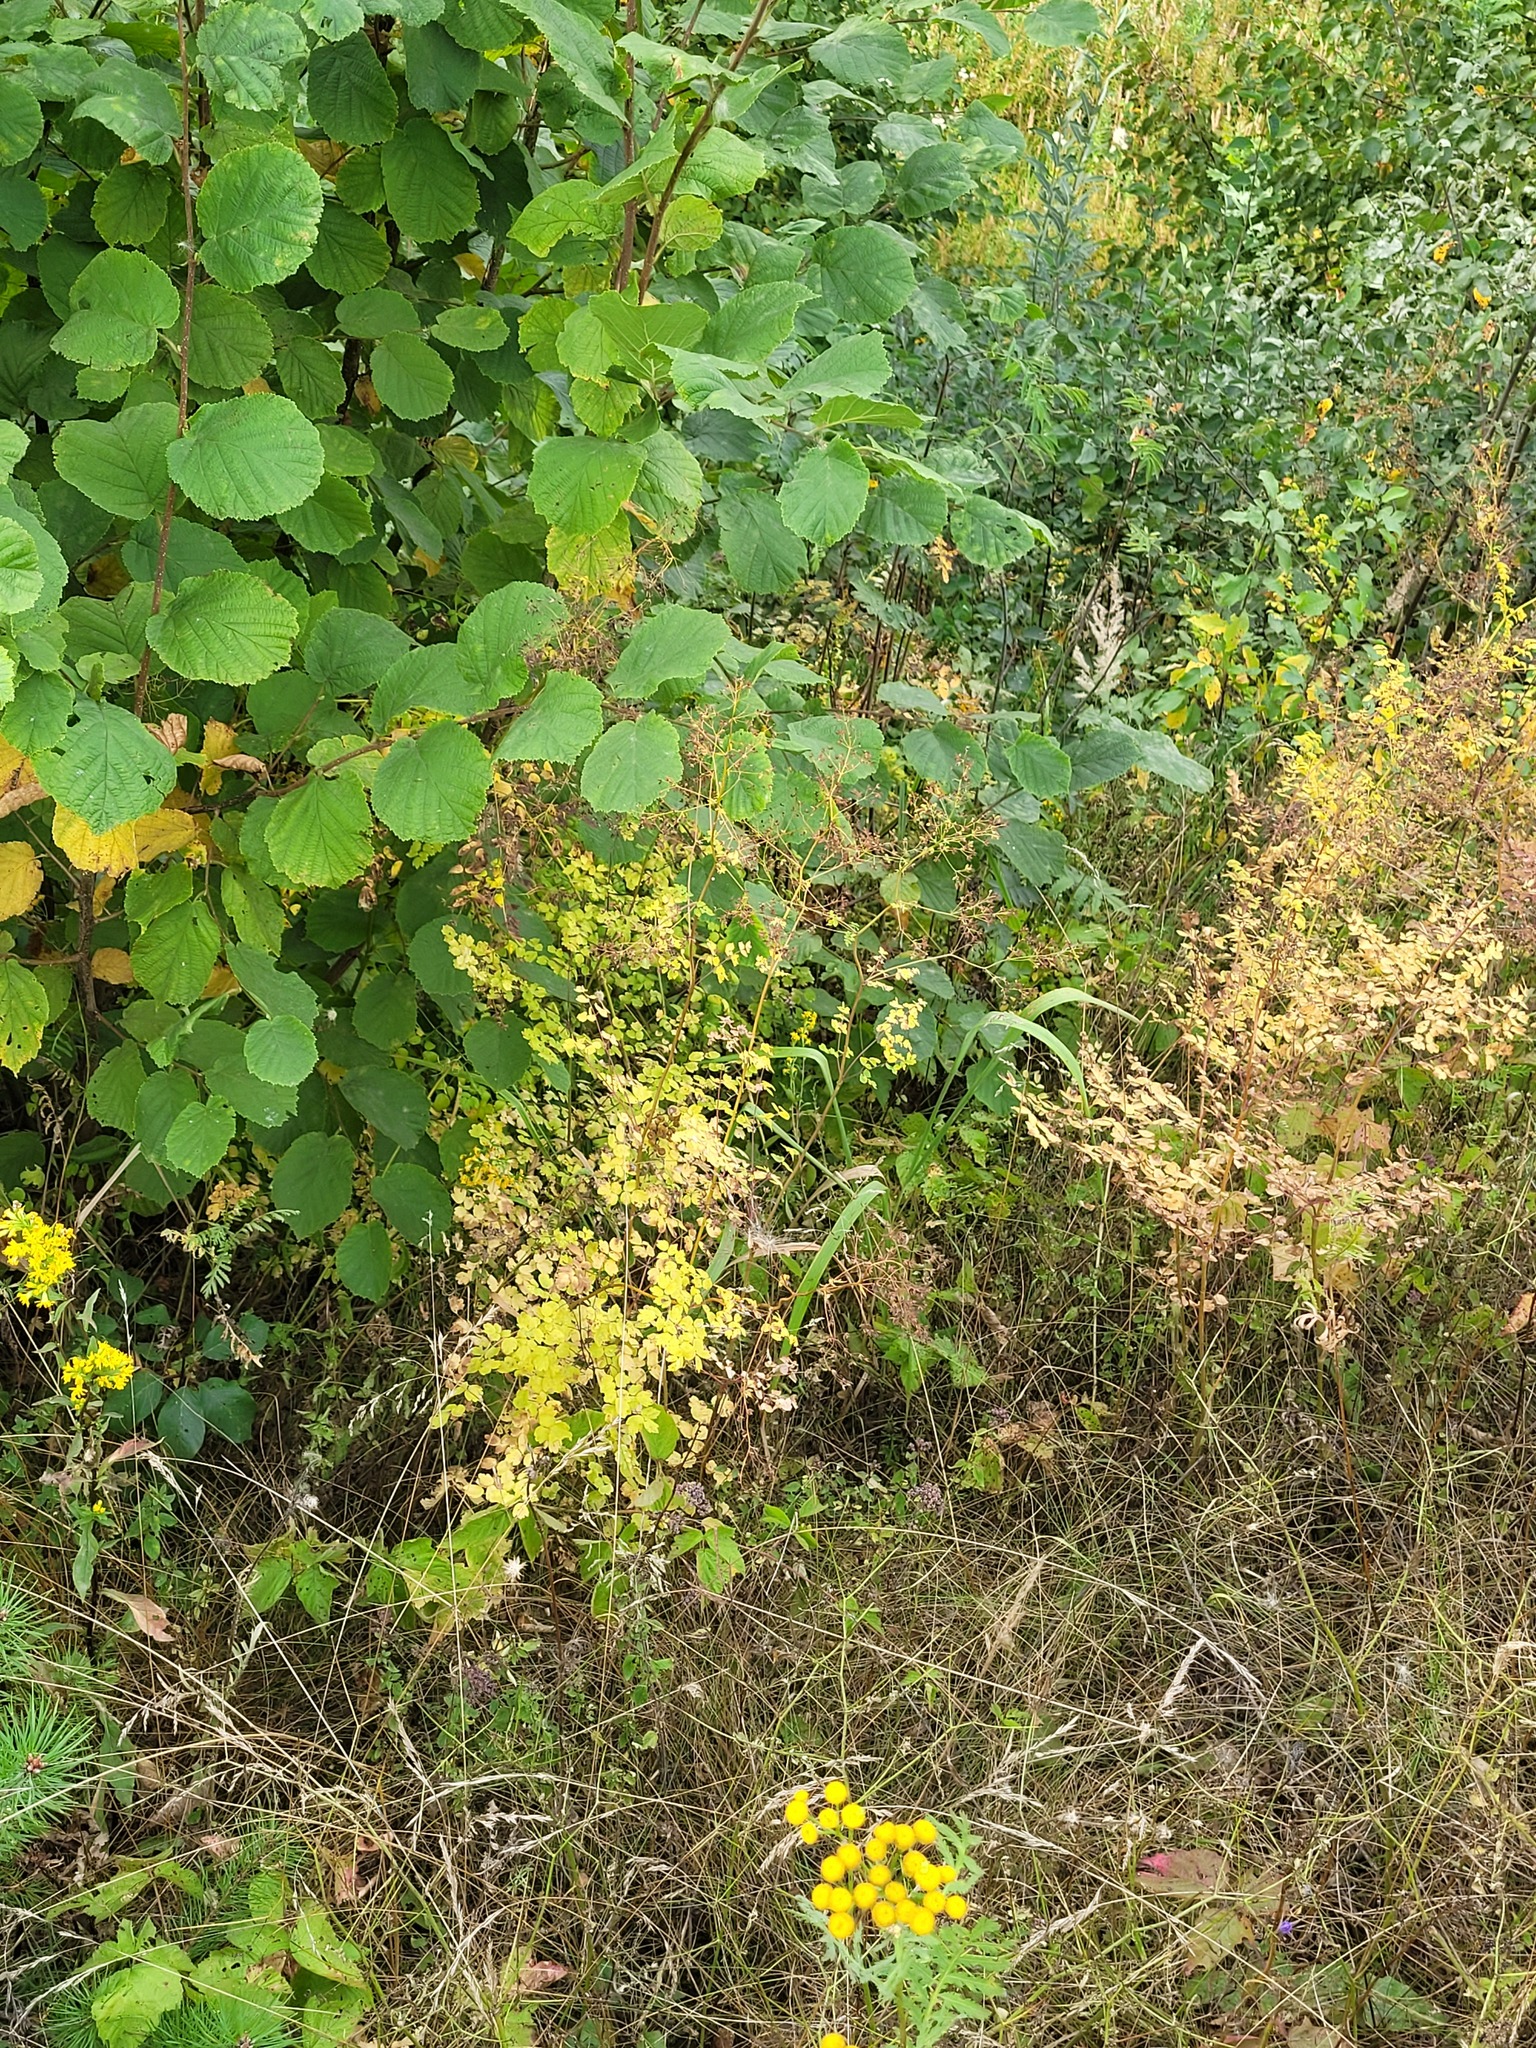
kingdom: Plantae
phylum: Tracheophyta
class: Magnoliopsida
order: Ranunculales
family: Ranunculaceae
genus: Thalictrum
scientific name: Thalictrum minus
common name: Lesser meadow-rue
